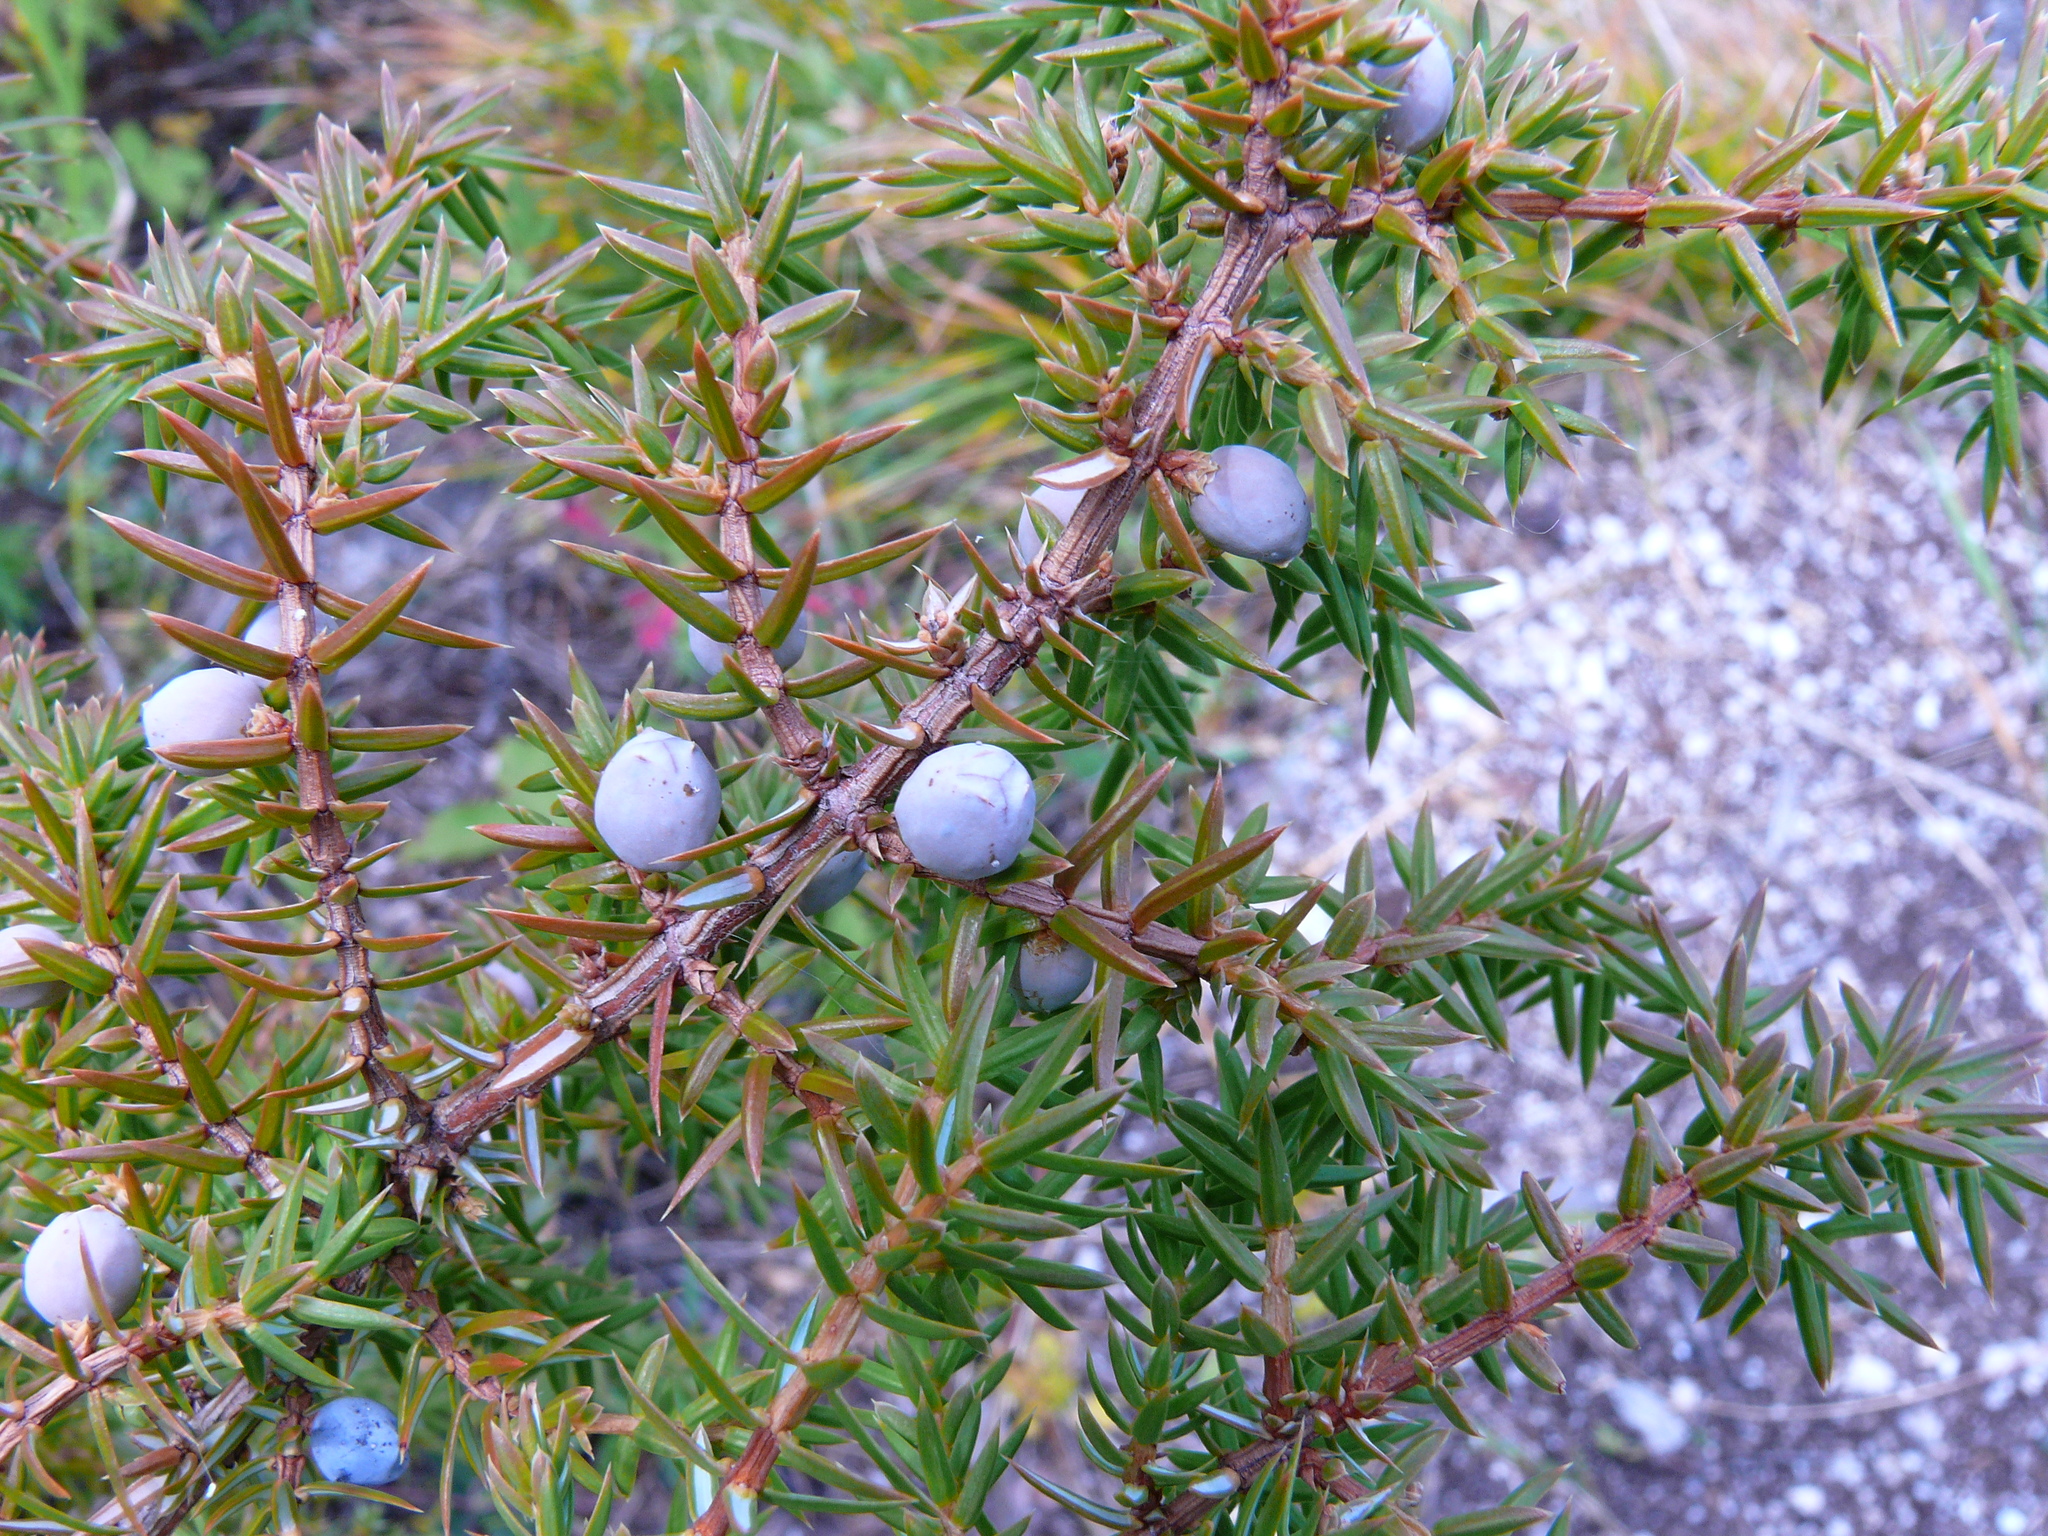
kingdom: Plantae
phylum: Tracheophyta
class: Pinopsida
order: Pinales
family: Cupressaceae
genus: Juniperus
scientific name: Juniperus communis
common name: Common juniper
